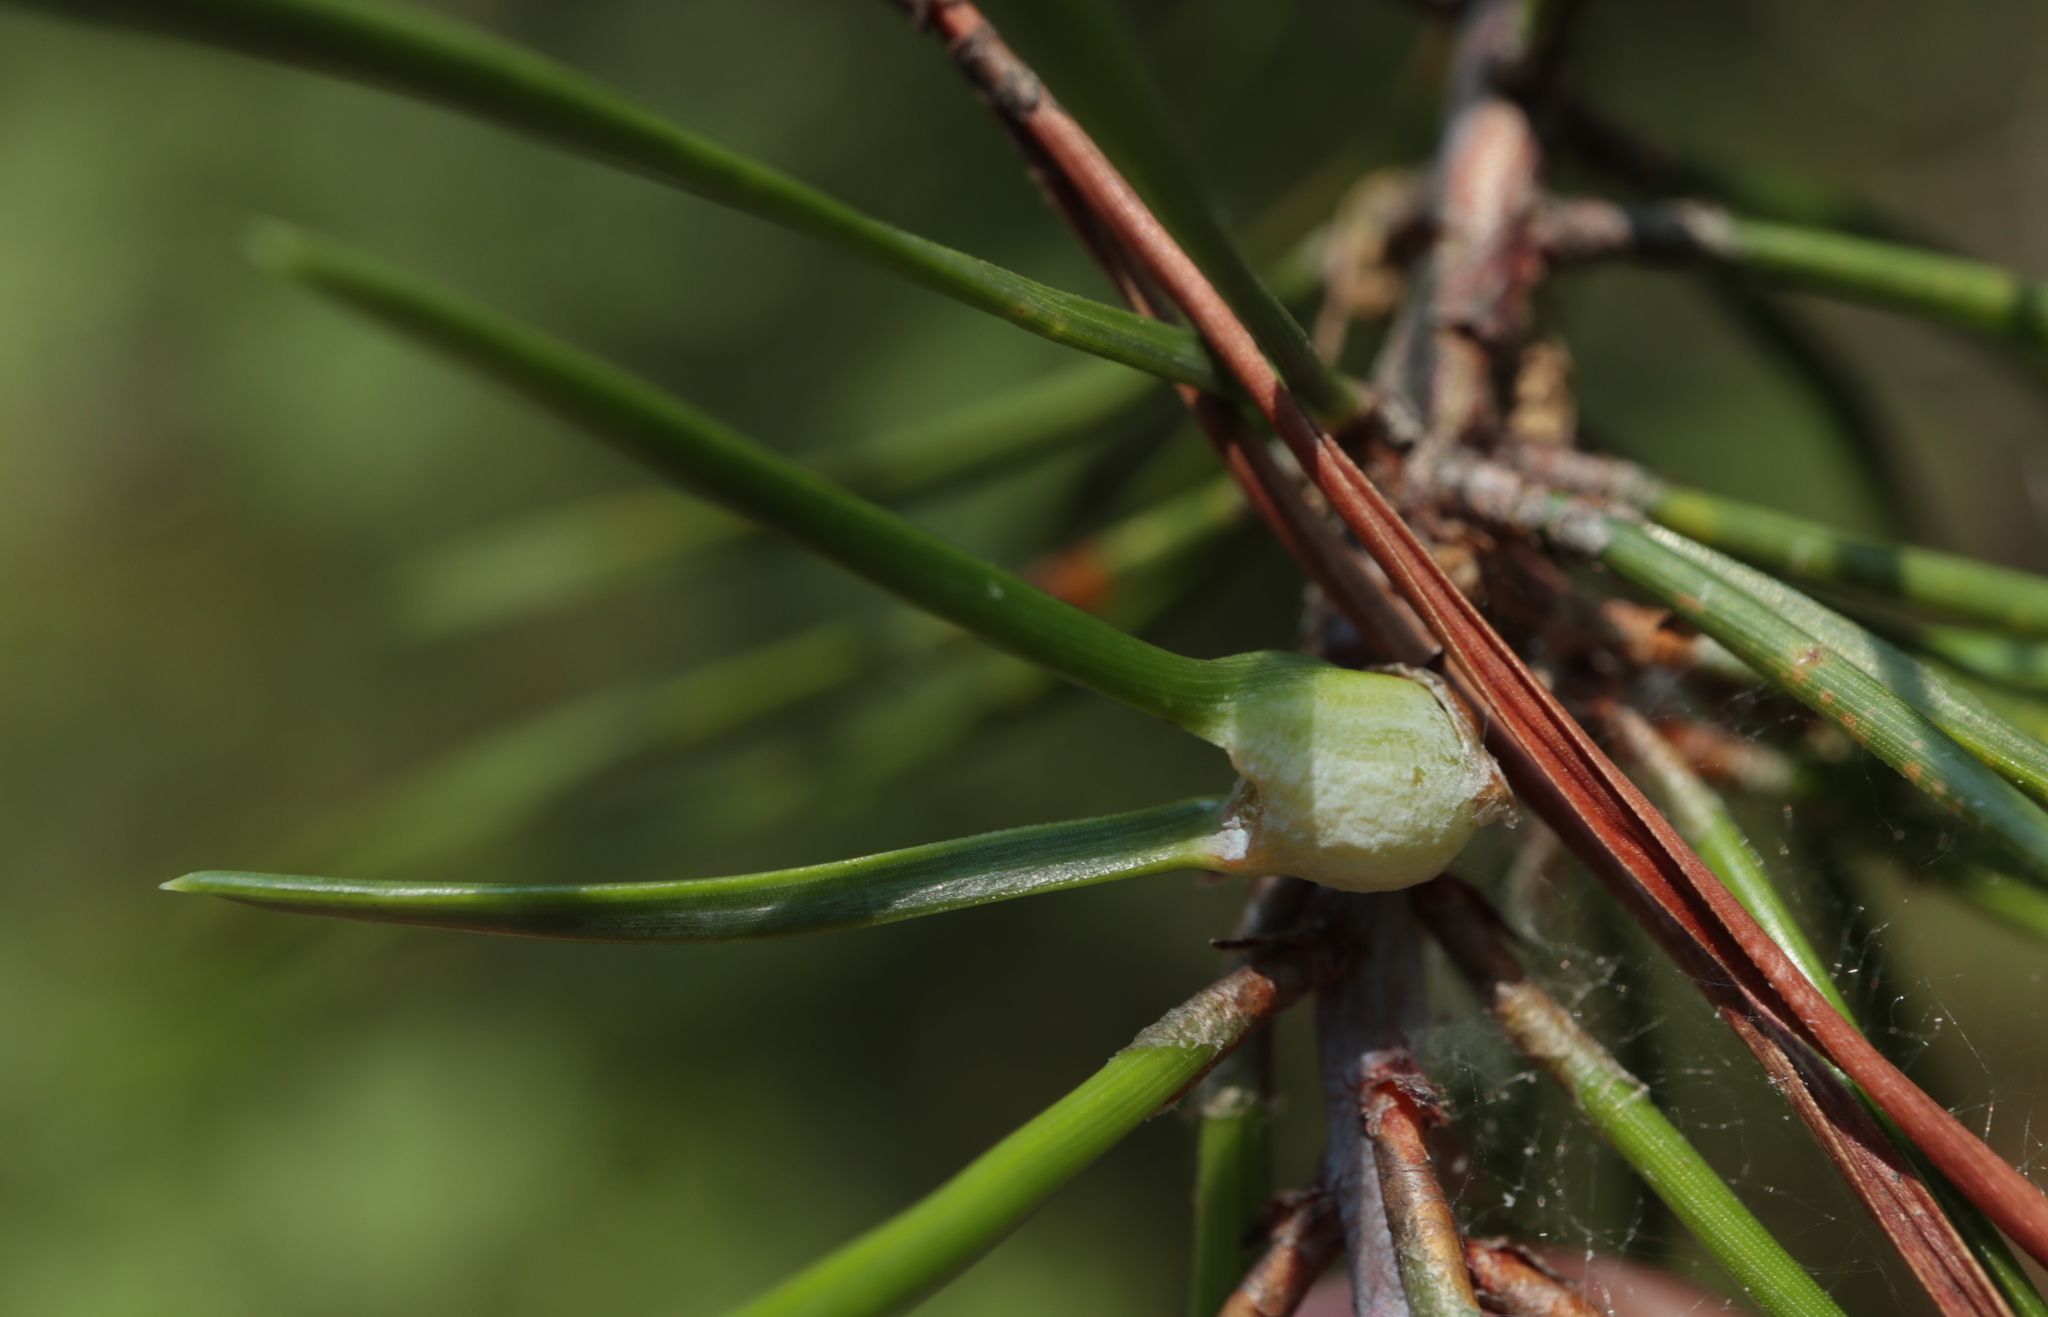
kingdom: Animalia
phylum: Arthropoda
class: Insecta
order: Diptera
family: Cecidomyiidae
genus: Thecodiplosis
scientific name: Thecodiplosis brachynteroides
